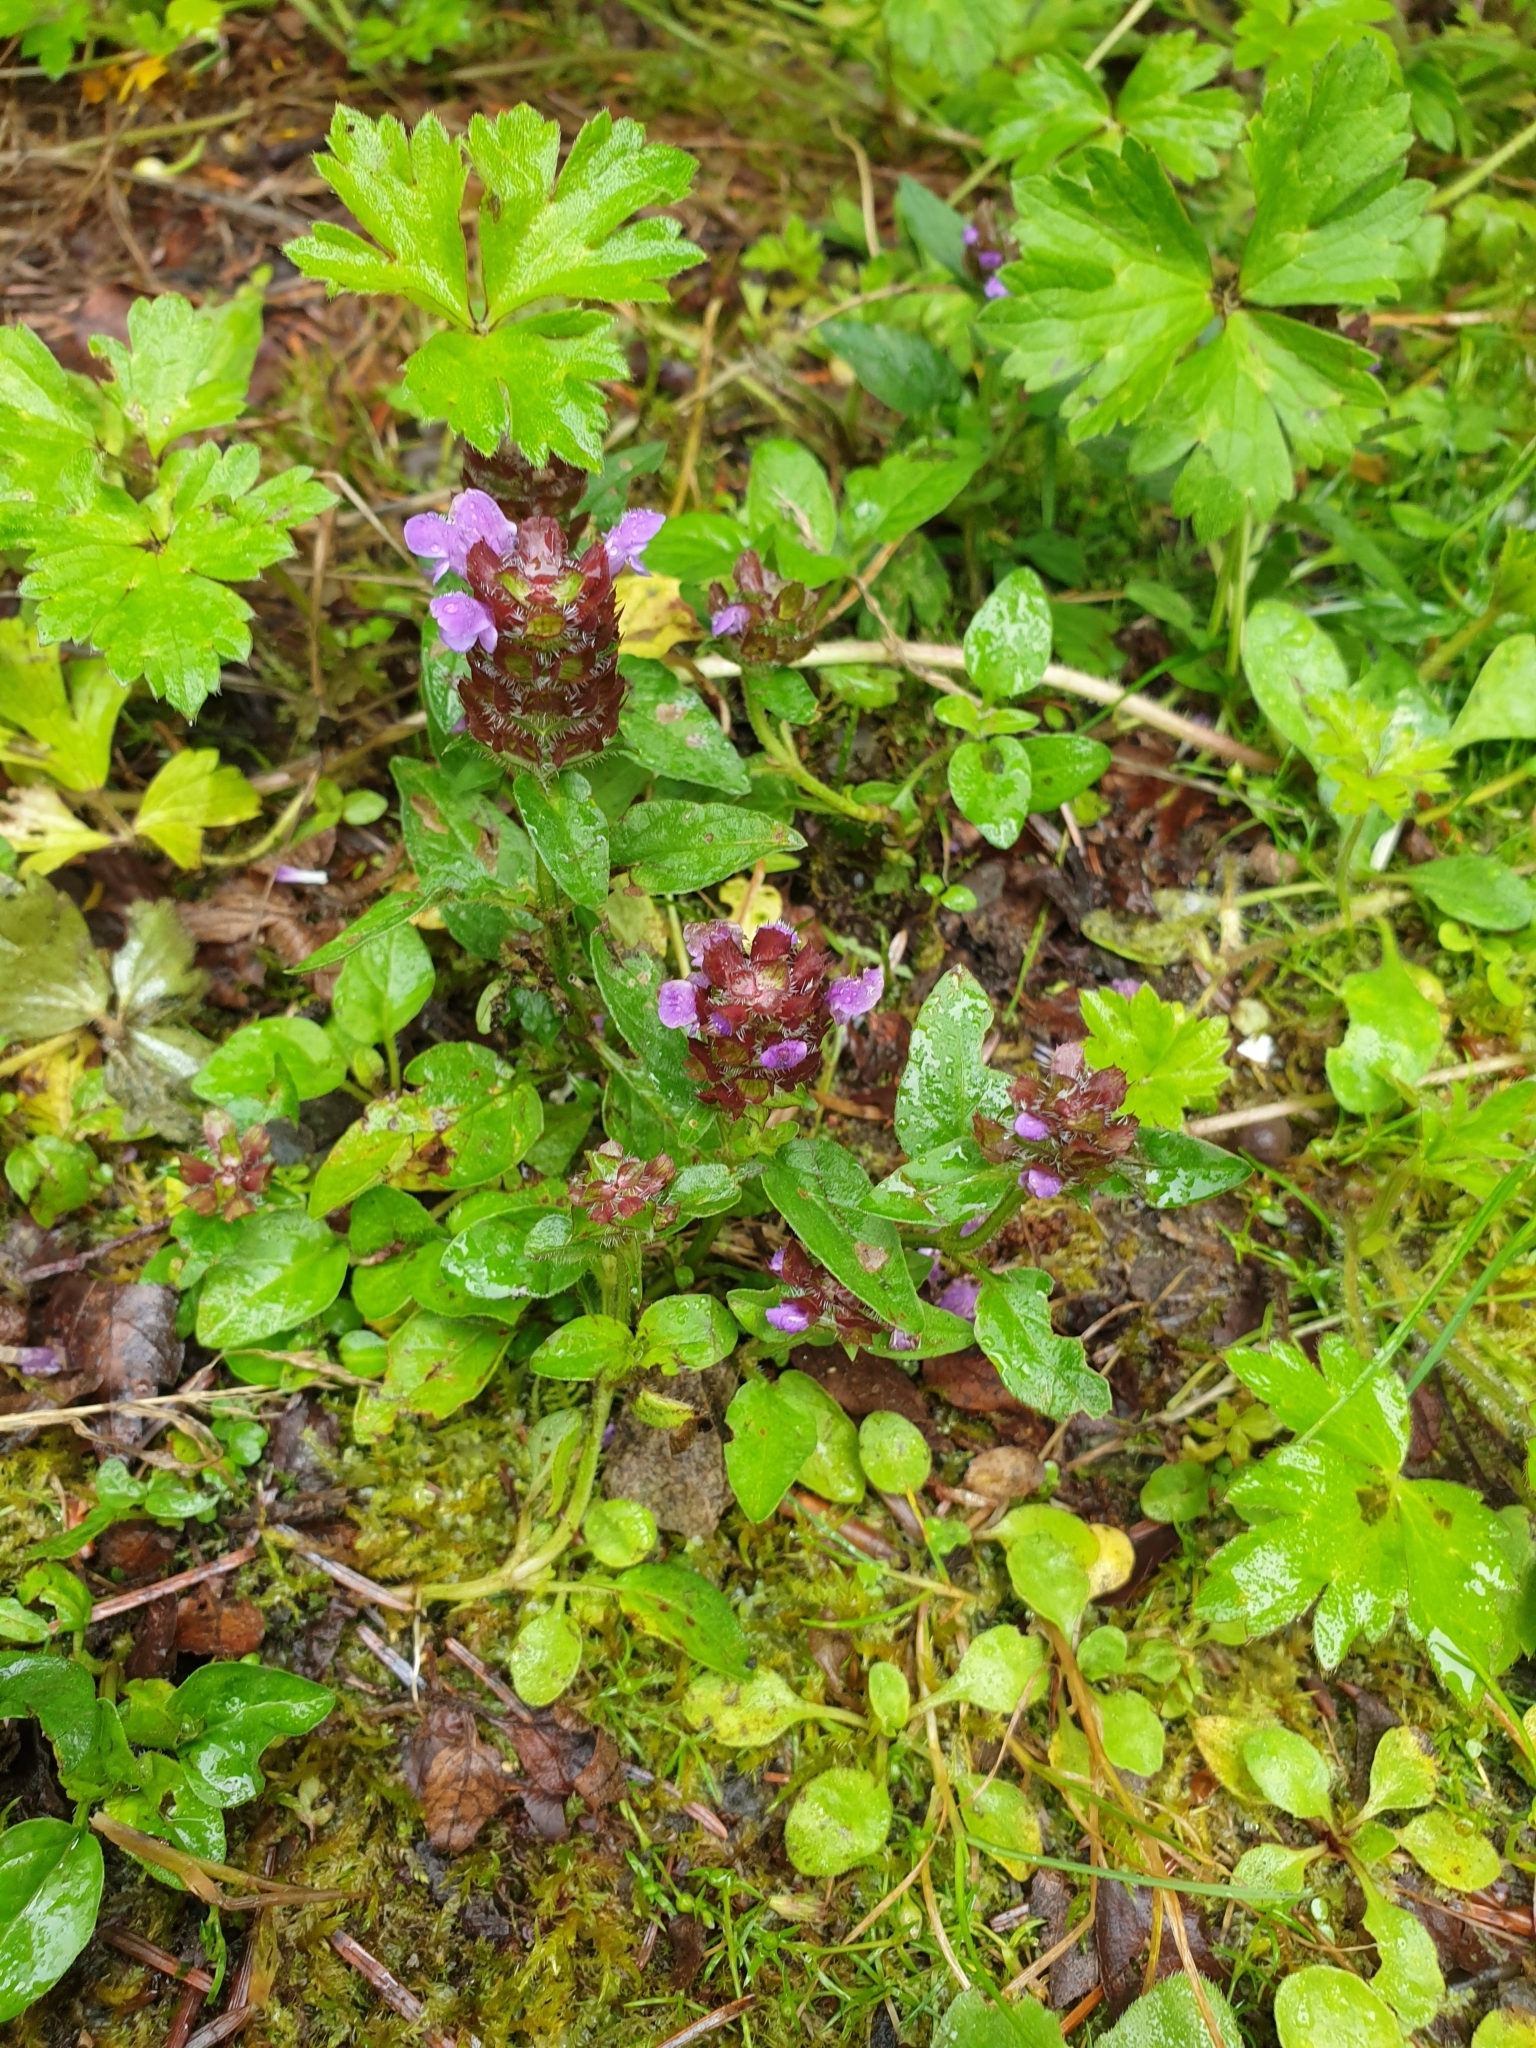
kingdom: Plantae
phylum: Tracheophyta
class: Magnoliopsida
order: Lamiales
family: Lamiaceae
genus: Prunella
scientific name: Prunella vulgaris
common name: Heal-all
